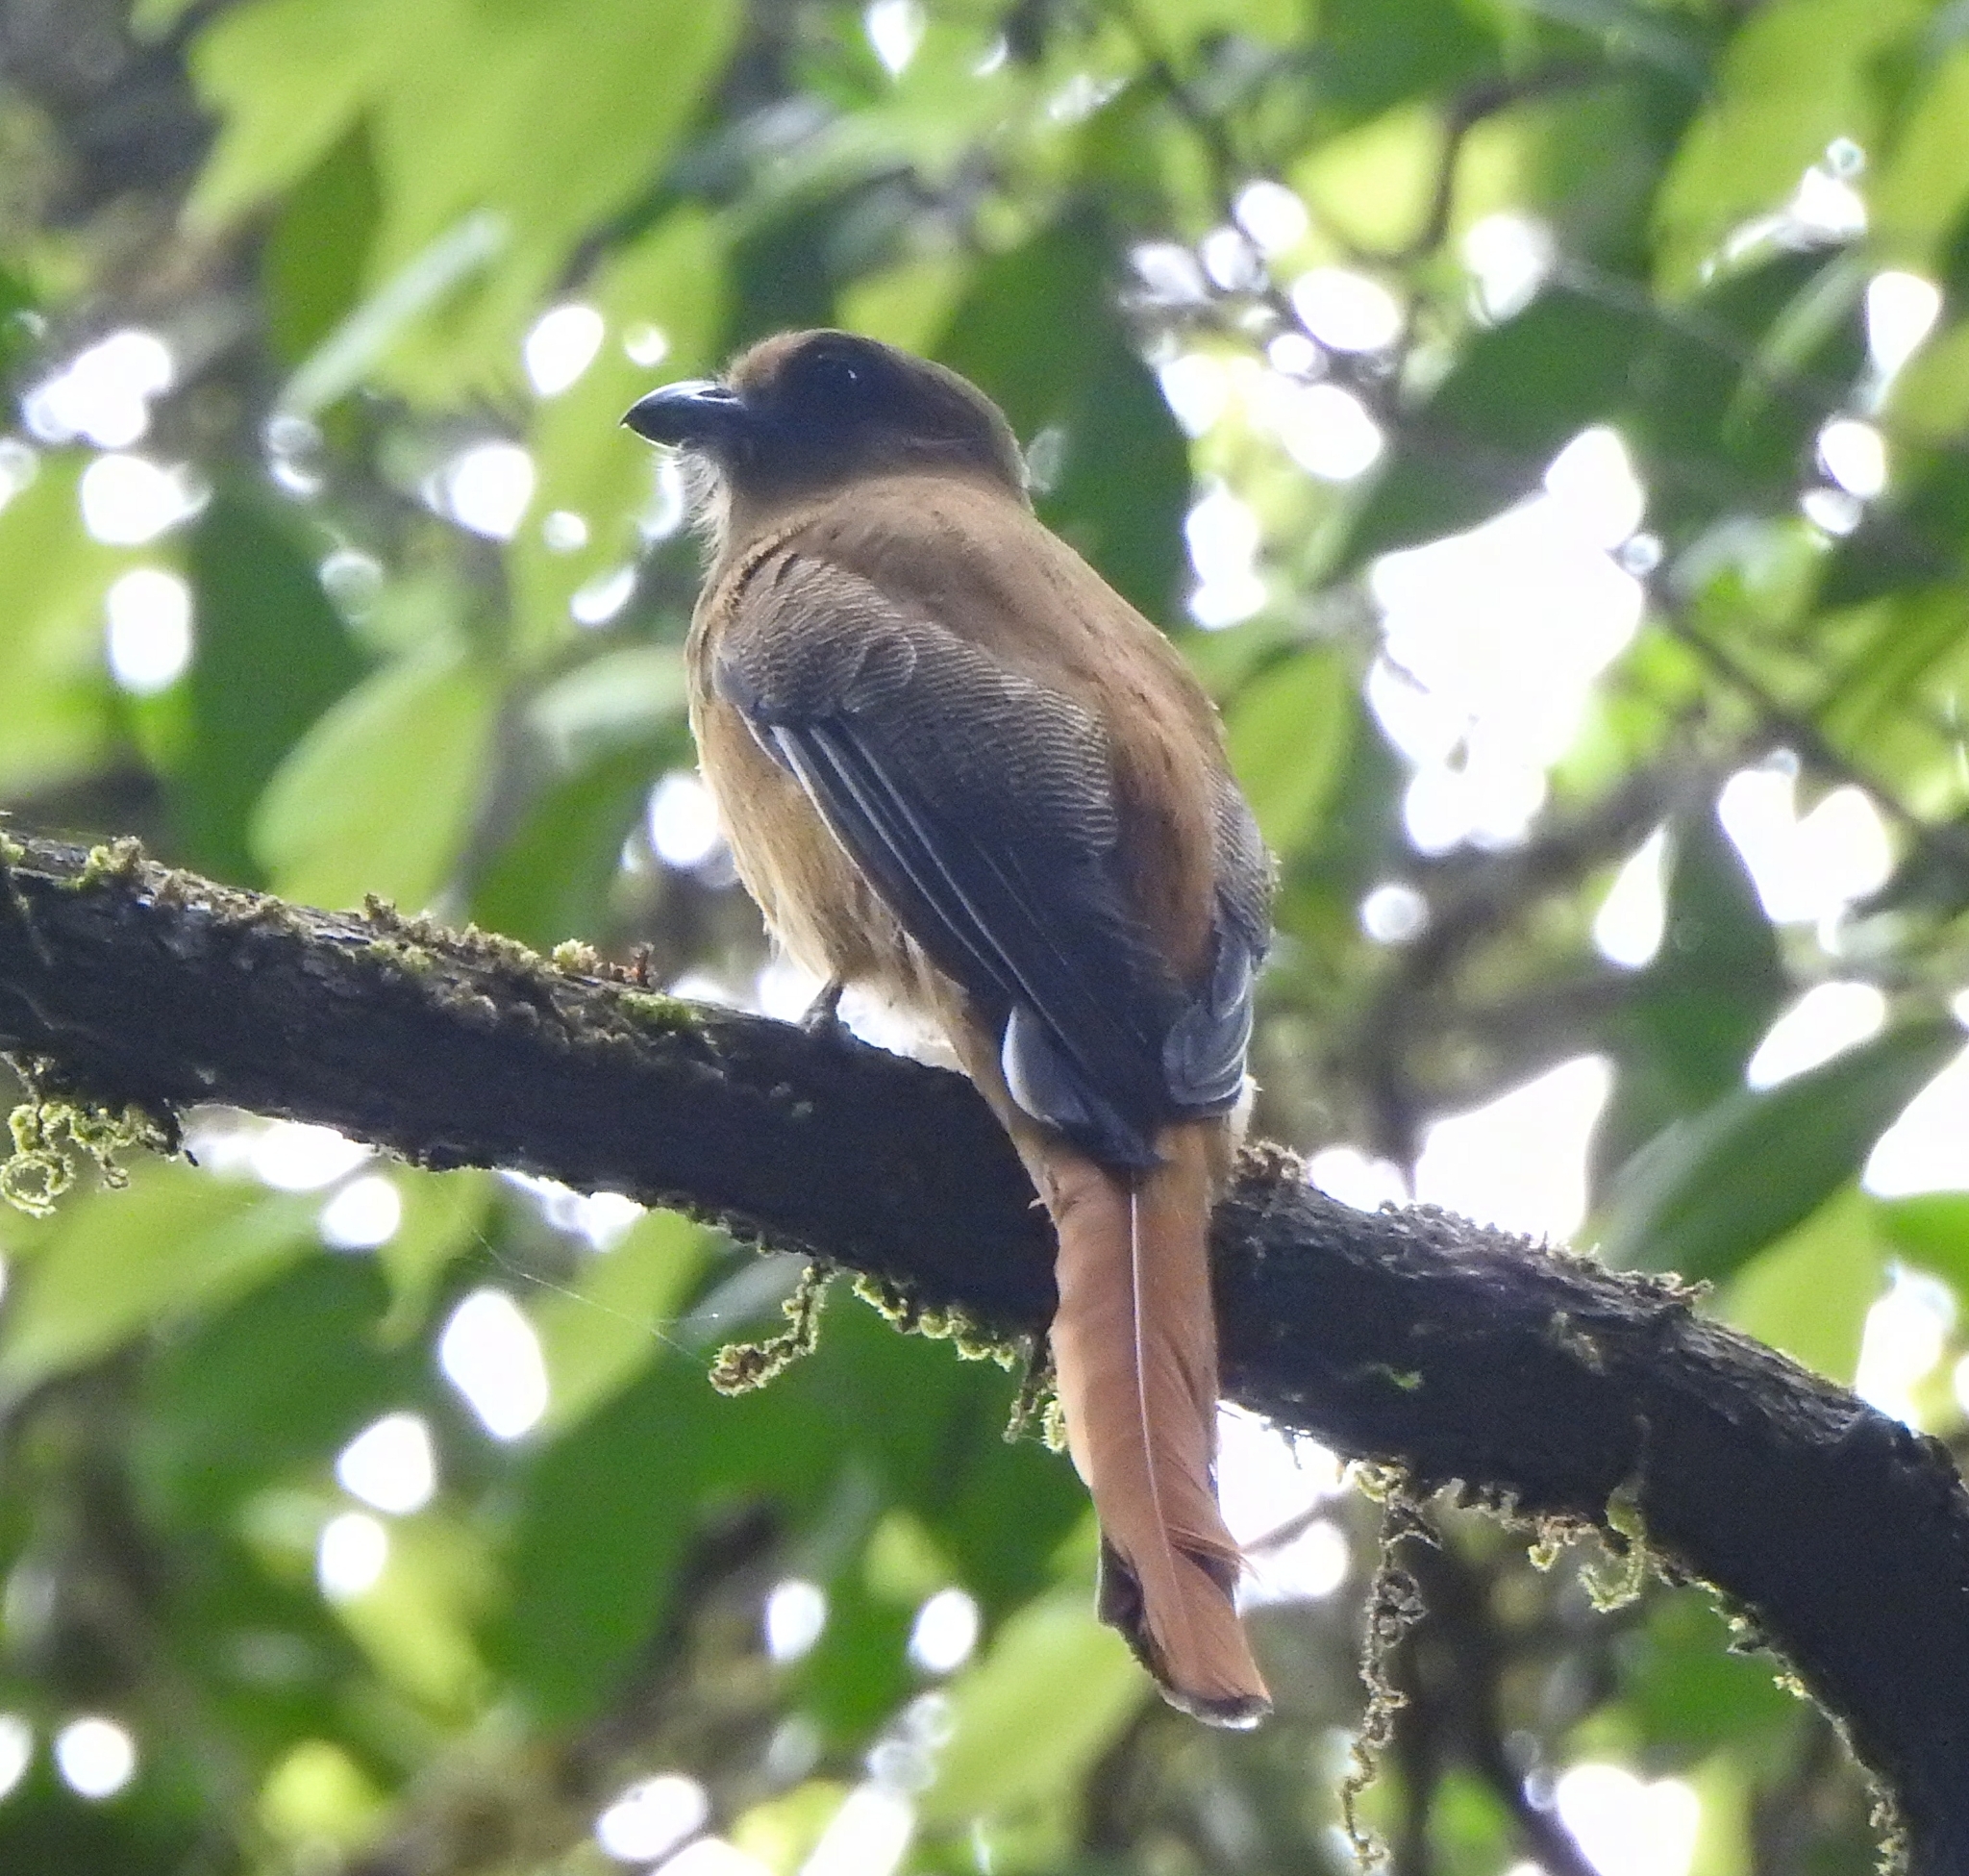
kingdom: Animalia
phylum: Chordata
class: Aves
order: Trogoniformes
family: Trogonidae
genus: Harpactes
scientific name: Harpactes fasciatus
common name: Malabar trogon
